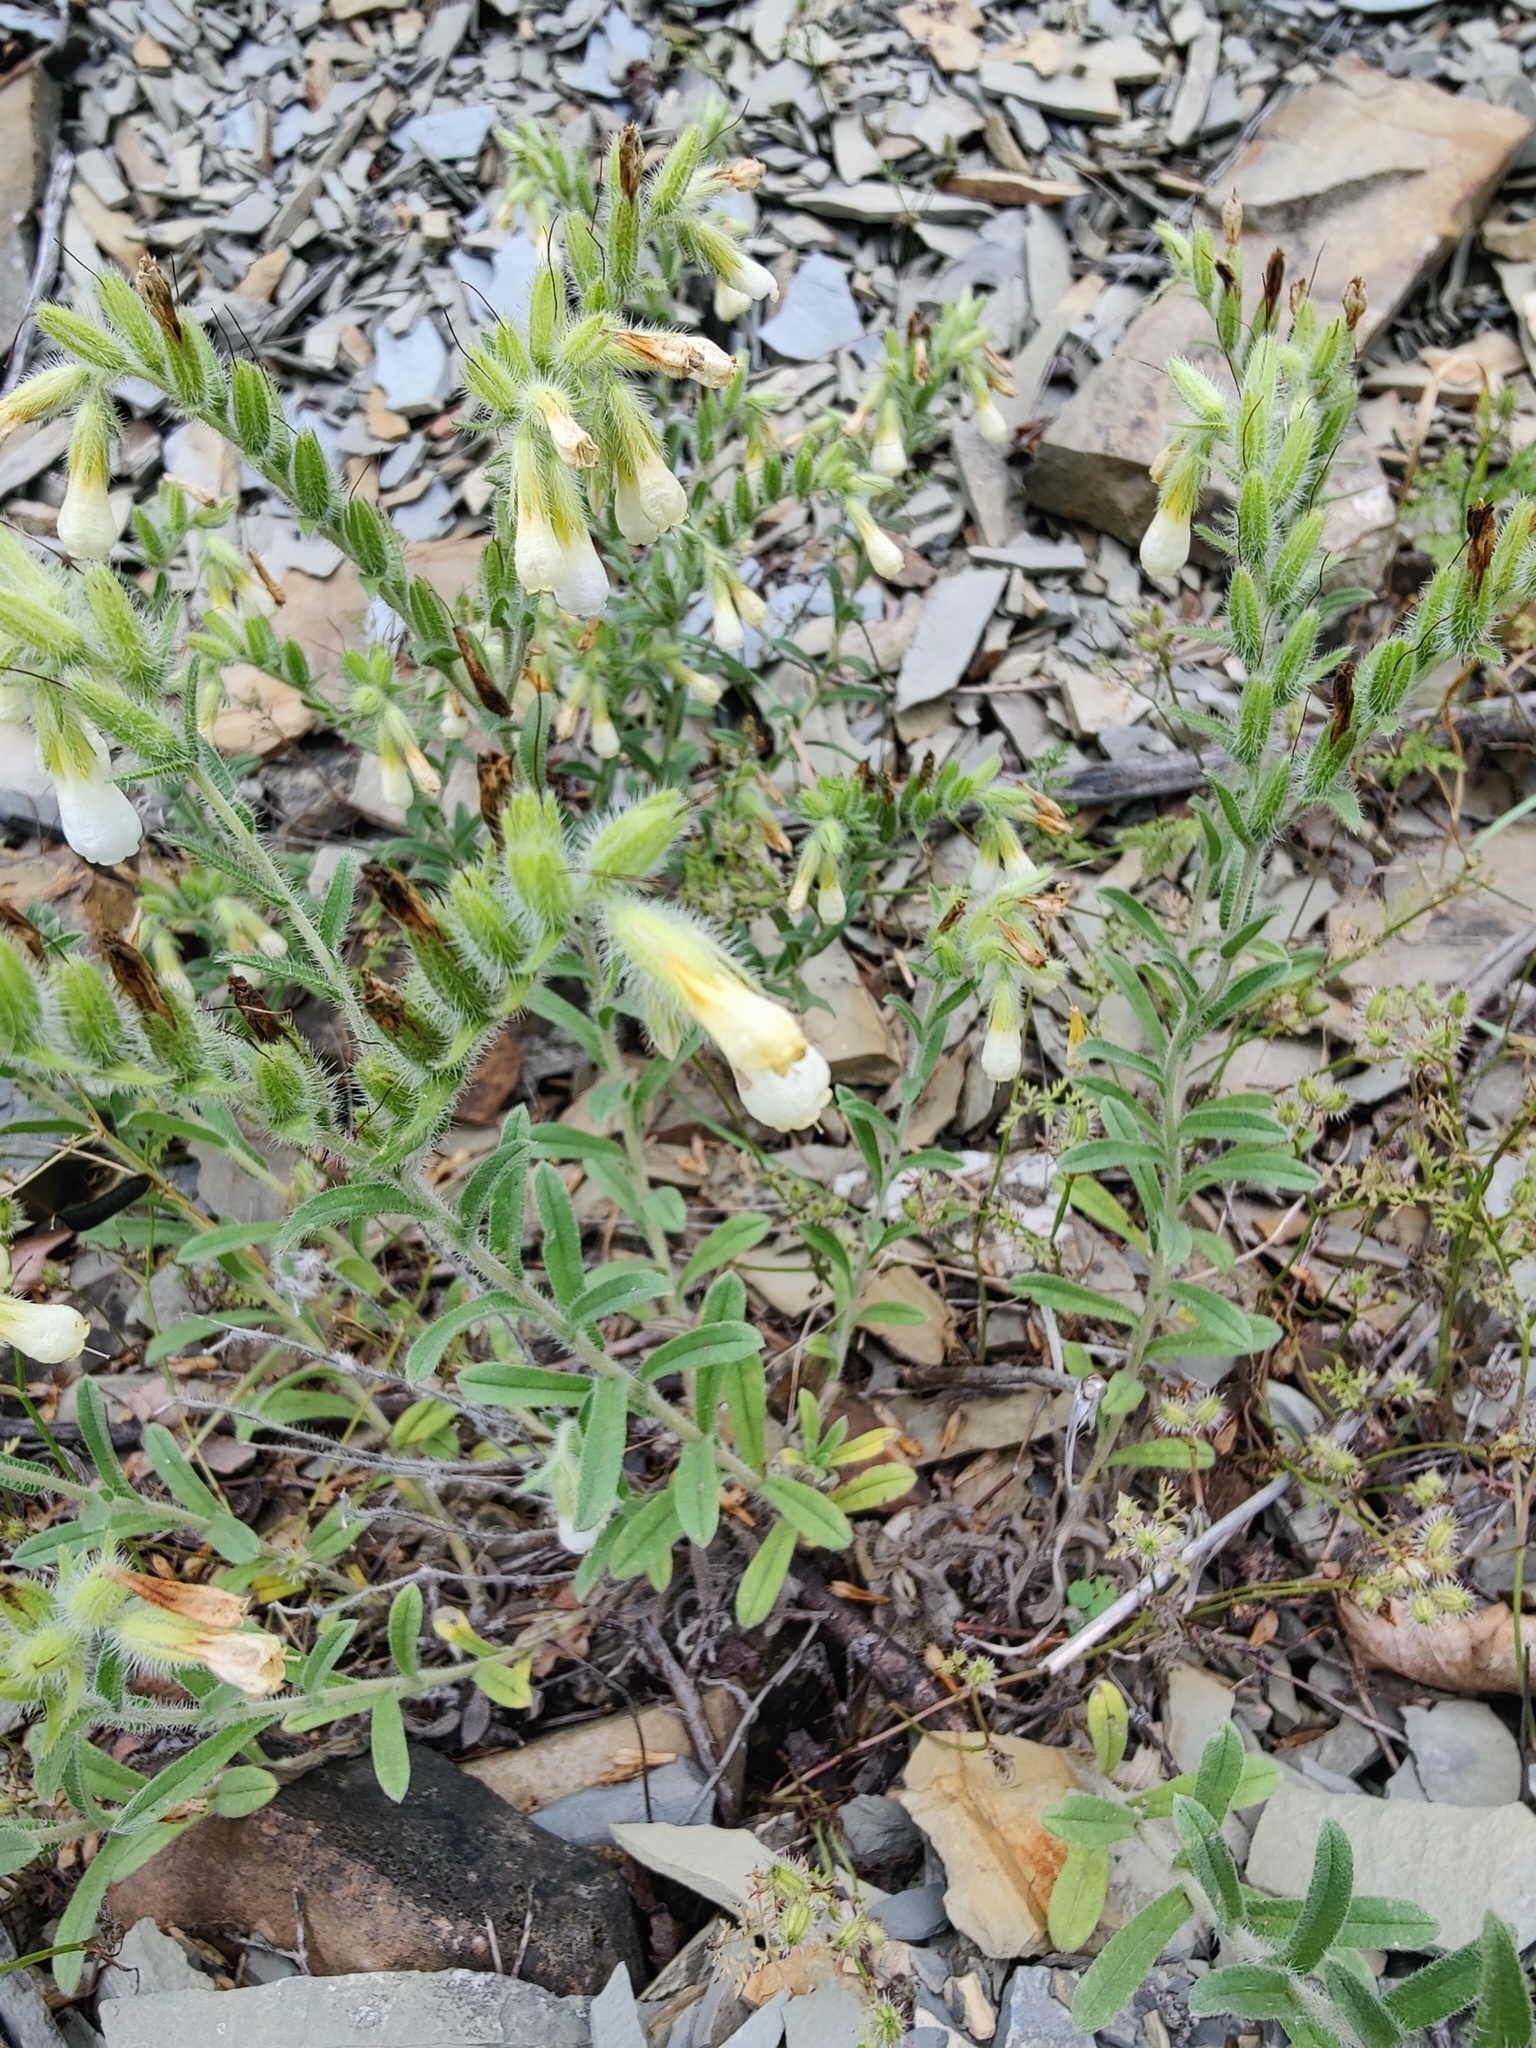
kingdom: Plantae
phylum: Tracheophyta
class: Magnoliopsida
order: Boraginales
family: Boraginaceae
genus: Onosma
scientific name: Onosma aucheriana
